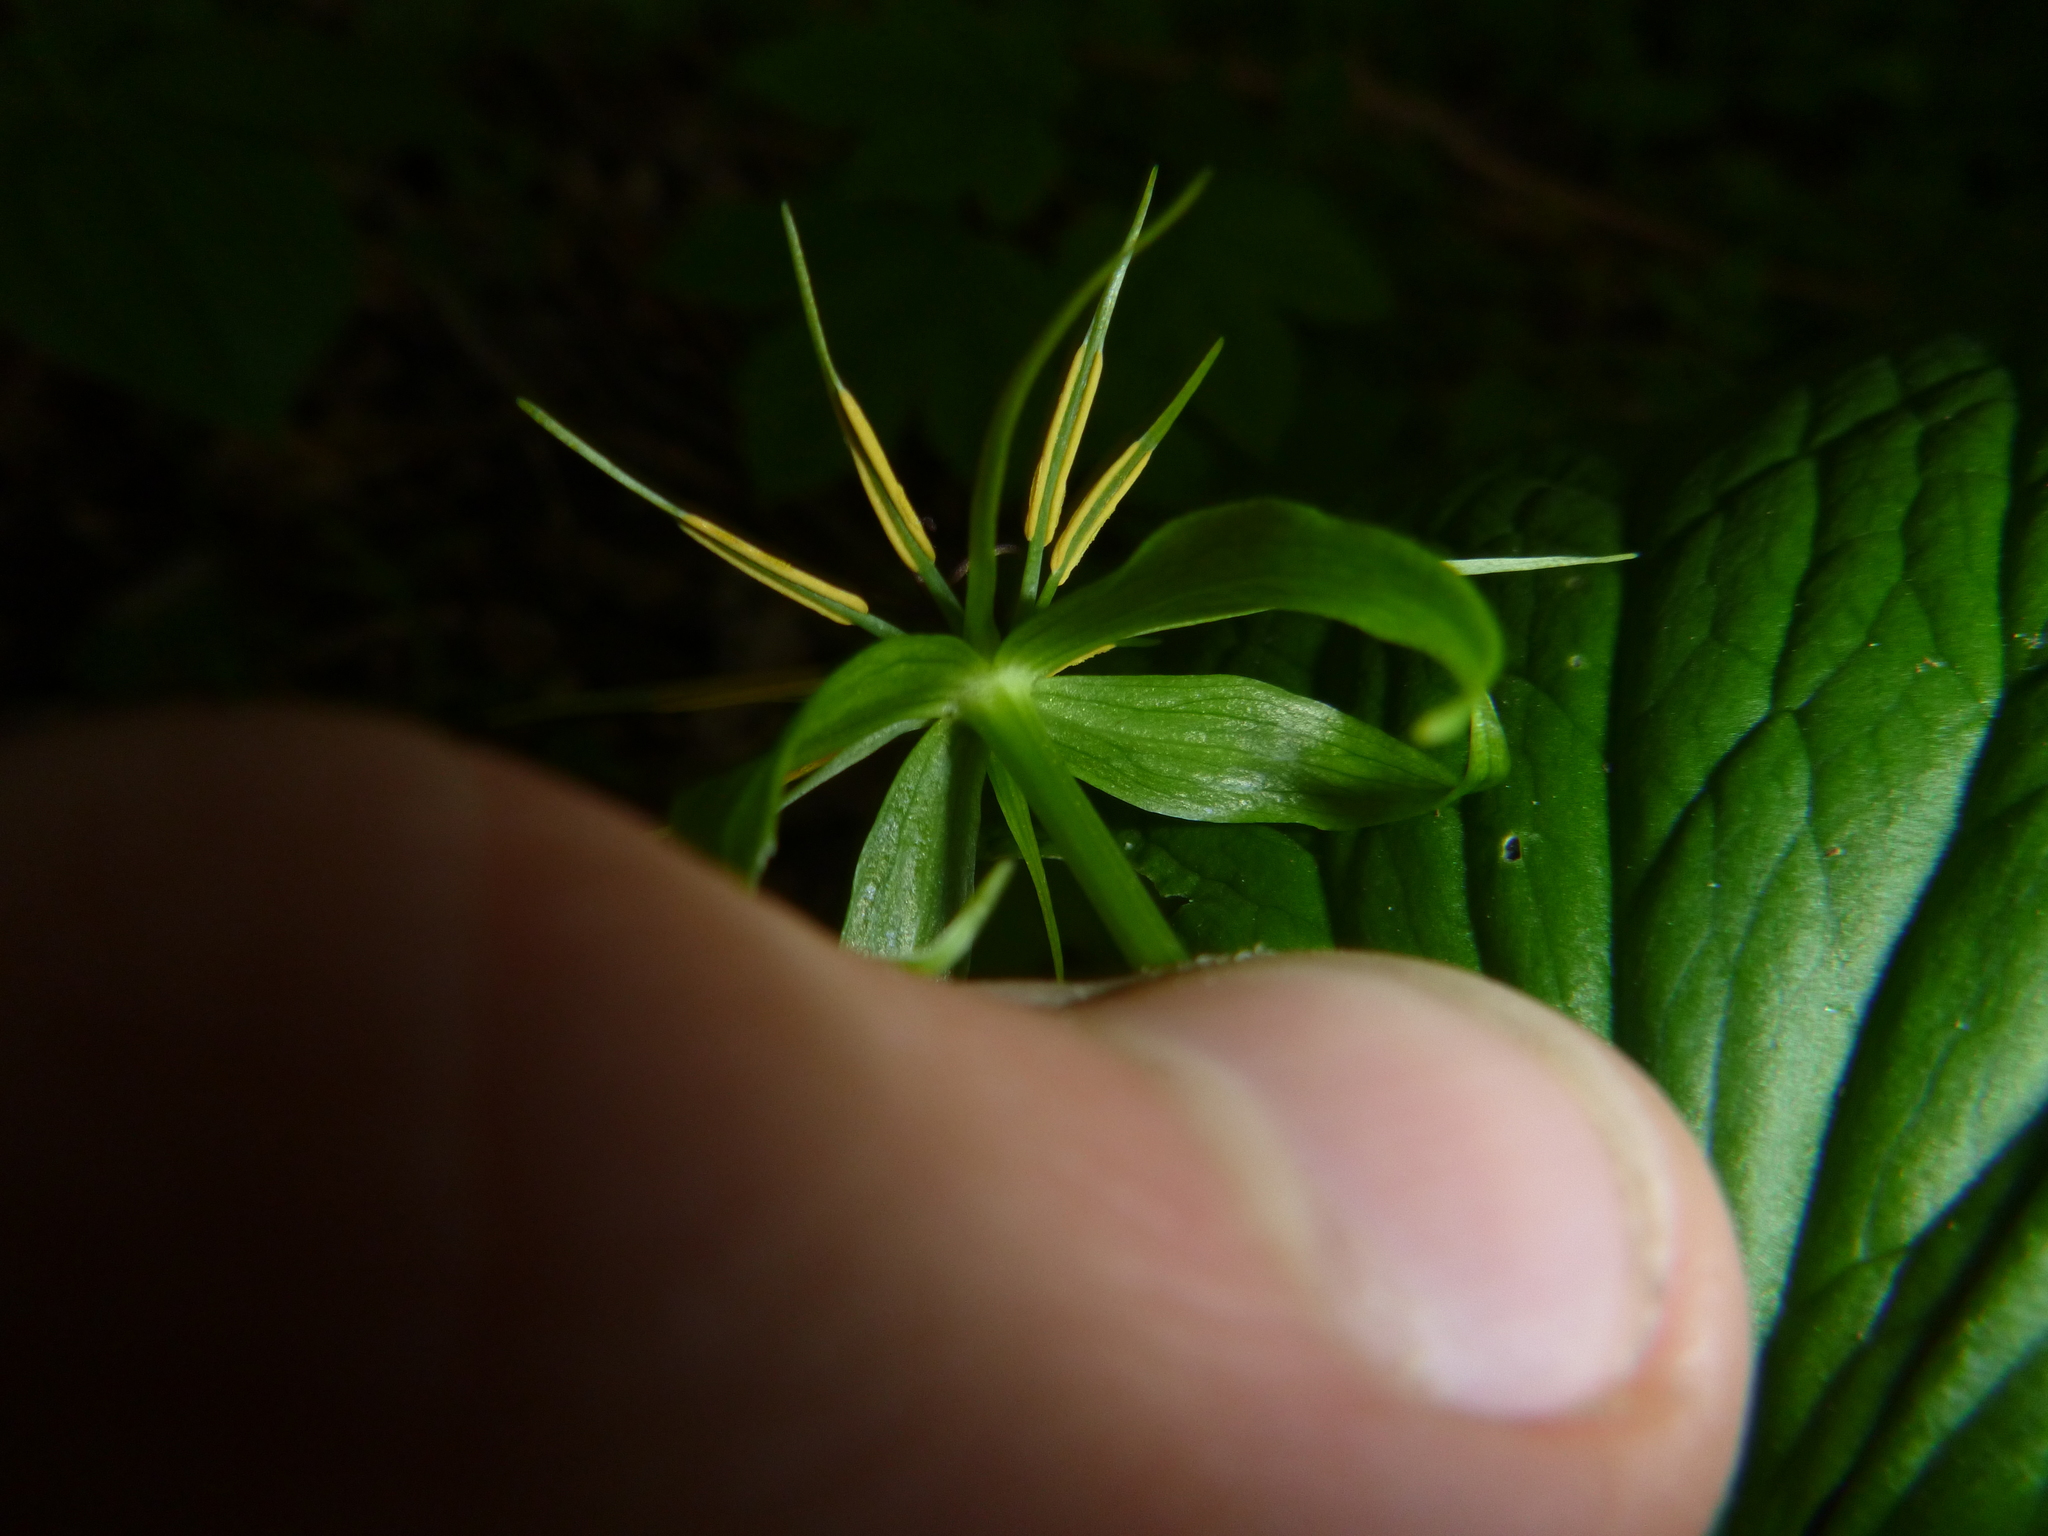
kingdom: Plantae
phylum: Tracheophyta
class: Liliopsida
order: Liliales
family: Melanthiaceae
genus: Paris
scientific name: Paris quadrifolia
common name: Herb-paris
